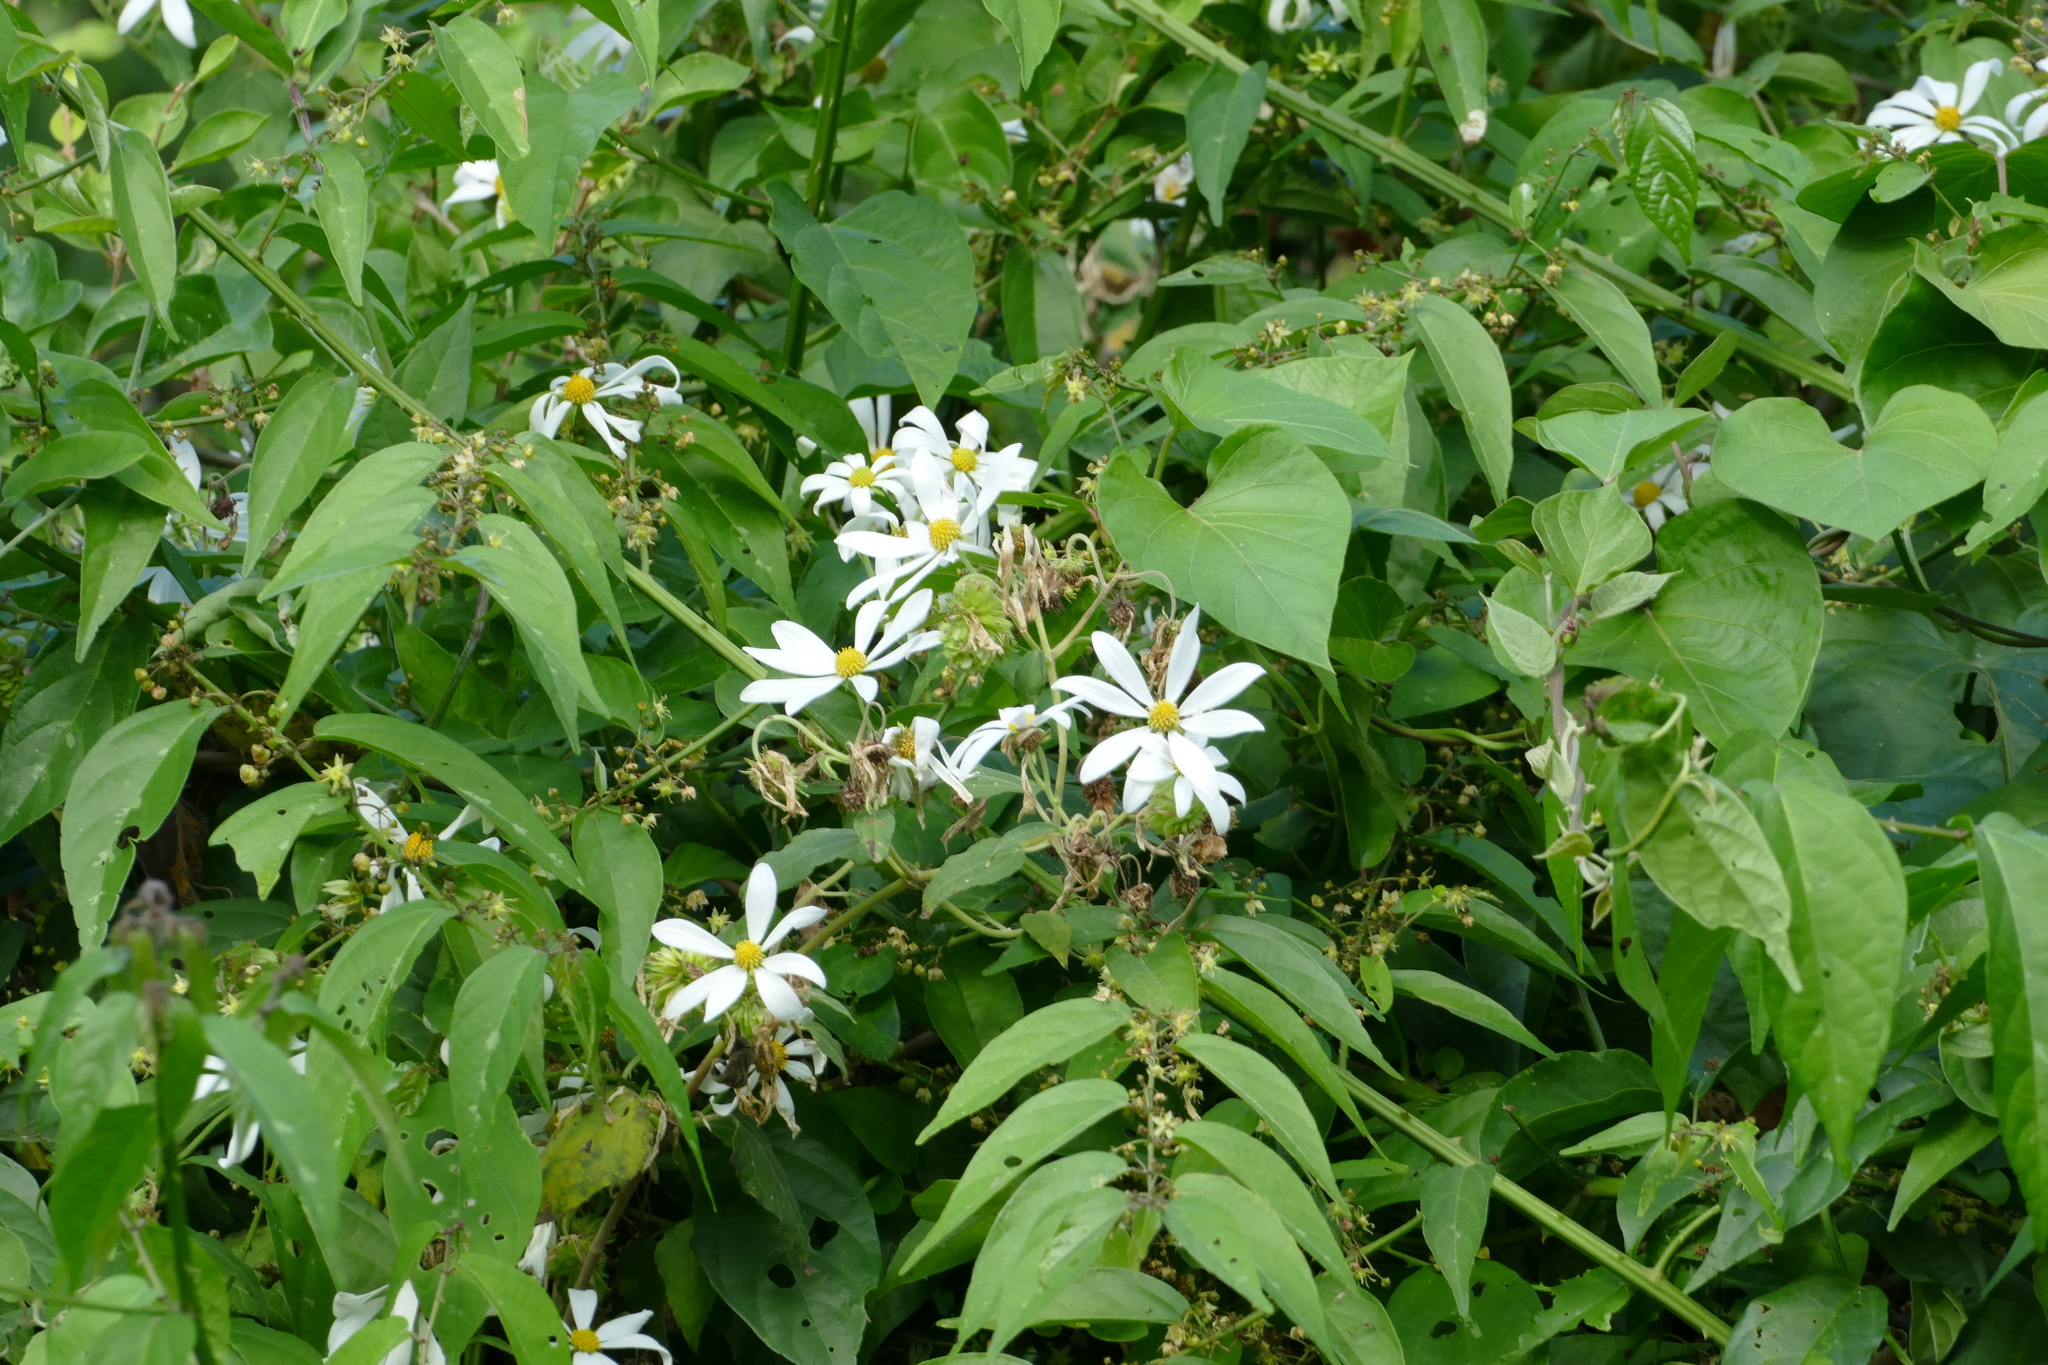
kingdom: Plantae
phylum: Tracheophyta
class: Magnoliopsida
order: Asterales
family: Asteraceae
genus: Montanoa
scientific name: Montanoa atriplicifolia
